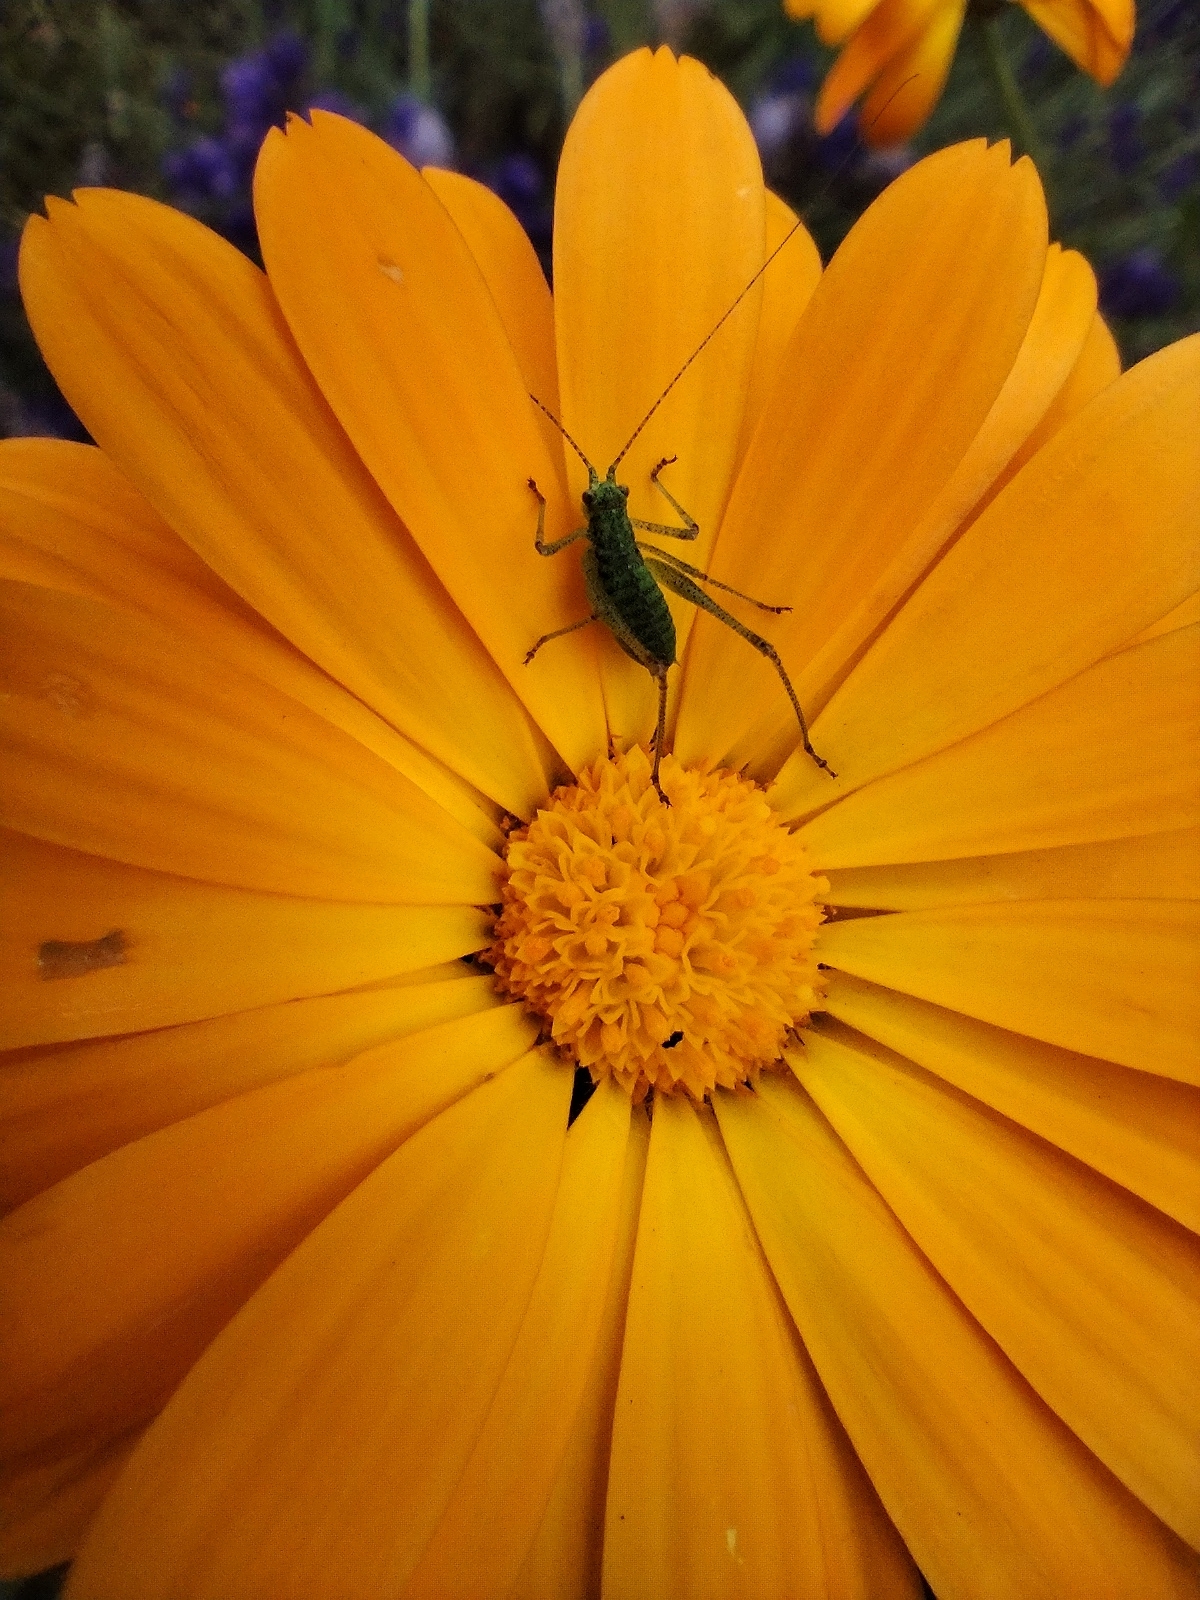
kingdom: Animalia
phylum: Arthropoda
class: Insecta
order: Orthoptera
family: Tettigoniidae
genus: Phaneroptera
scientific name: Phaneroptera nana
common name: Southern sickle bush-cricket
